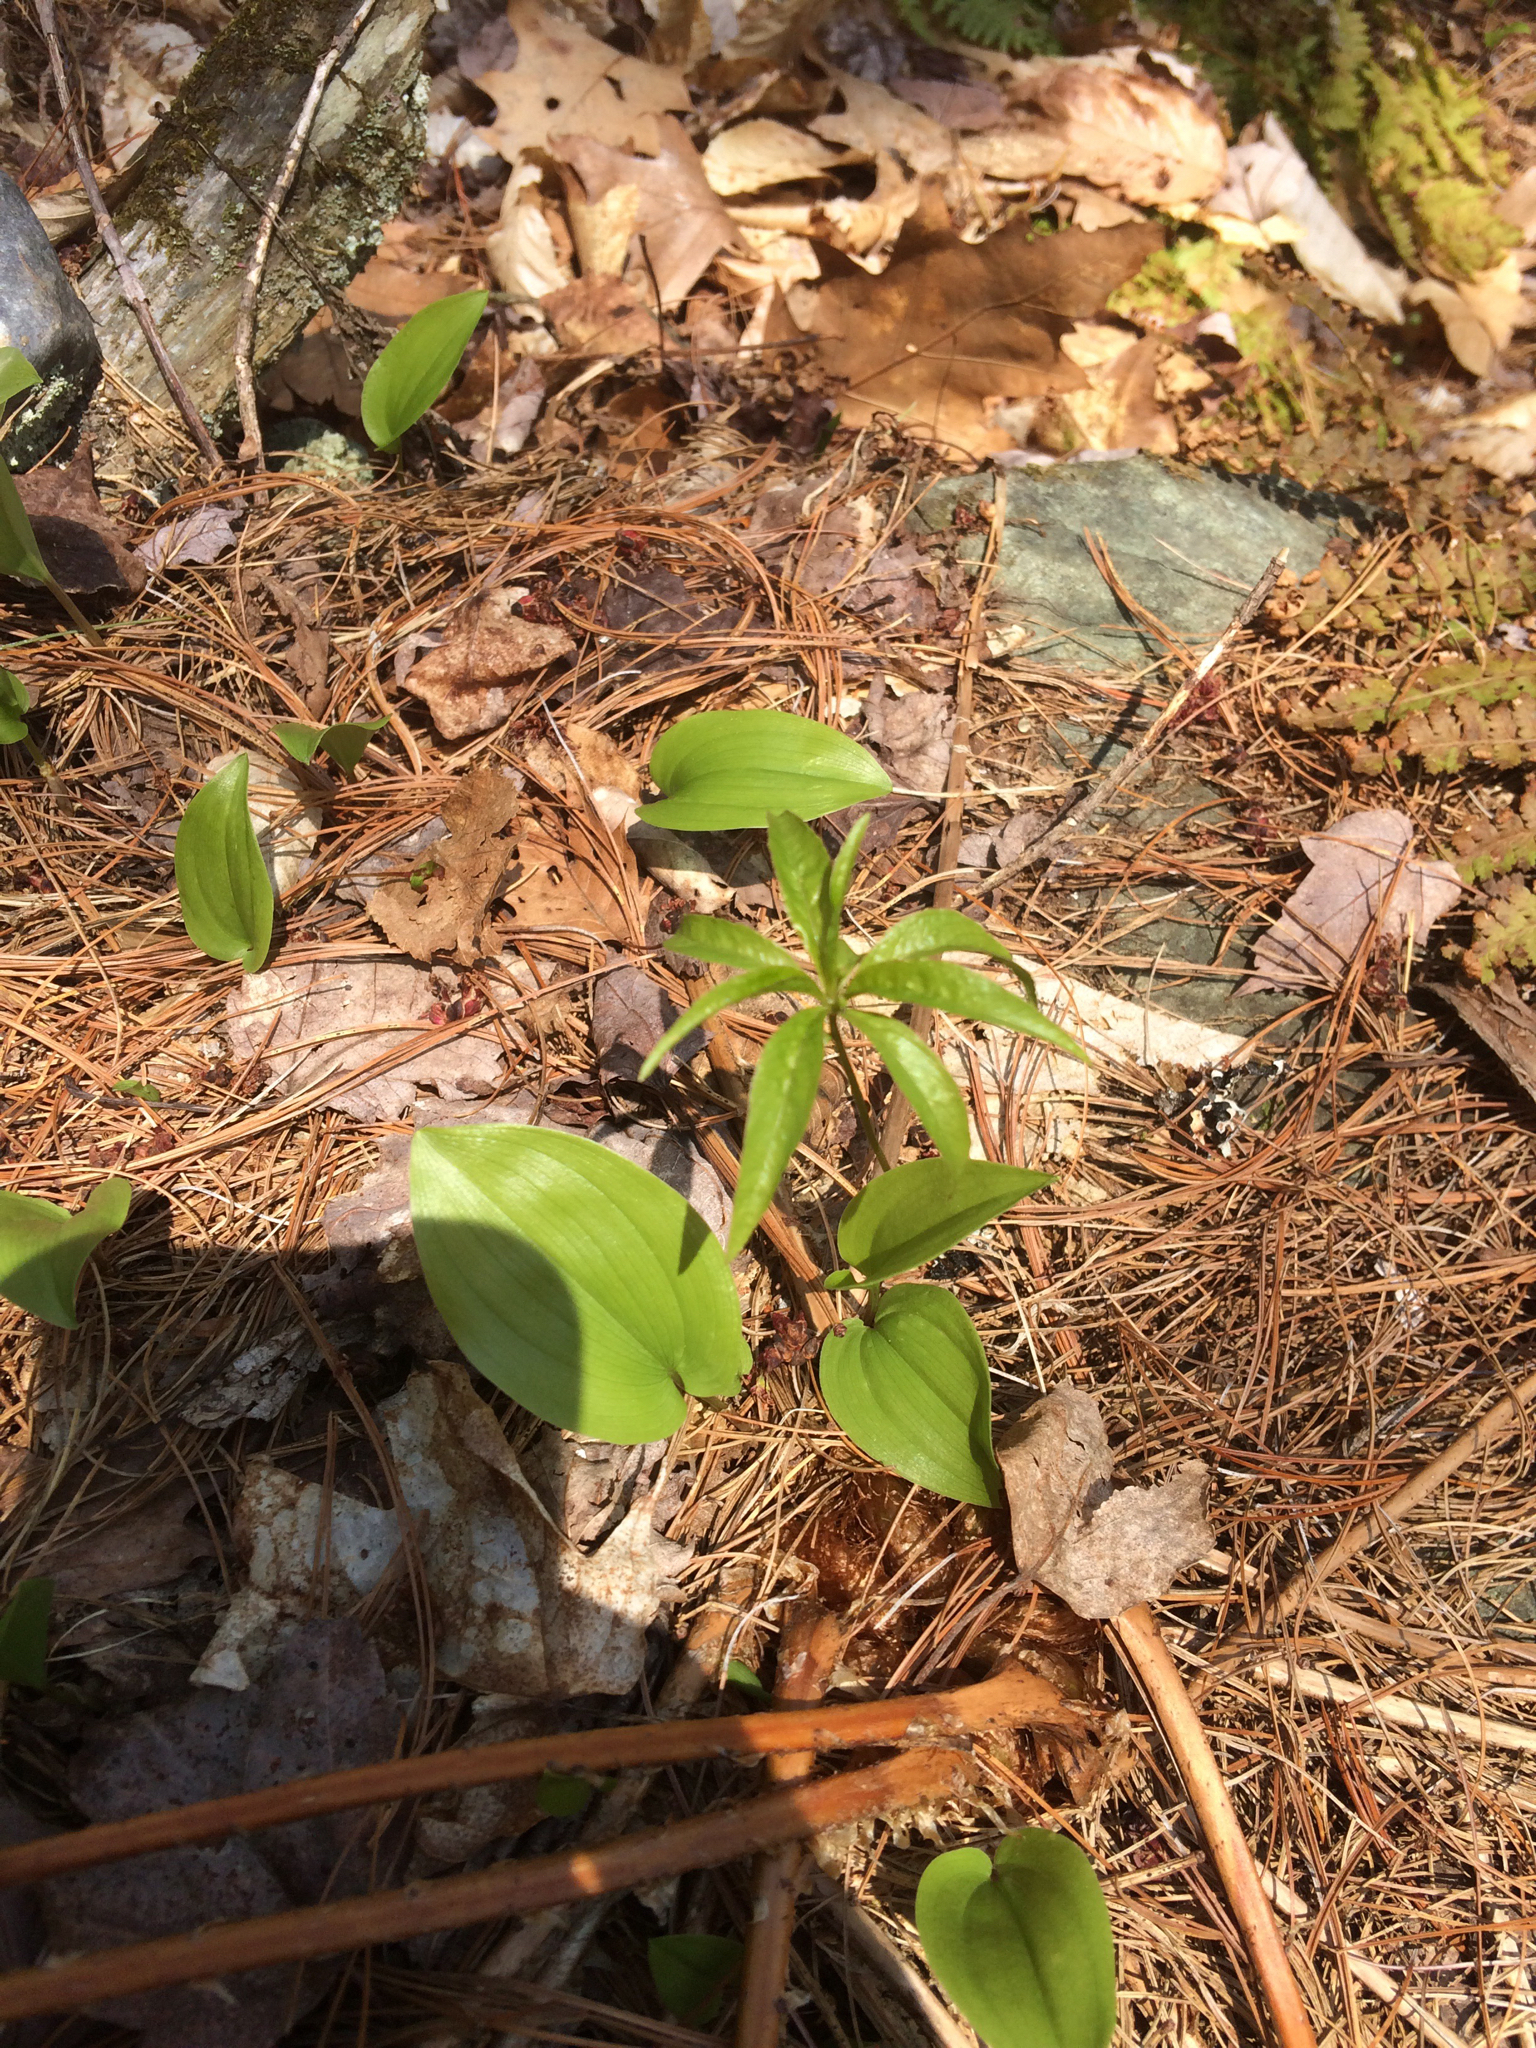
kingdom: Plantae
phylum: Tracheophyta
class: Magnoliopsida
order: Ericales
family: Primulaceae
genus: Lysimachia
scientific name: Lysimachia borealis
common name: American starflower
